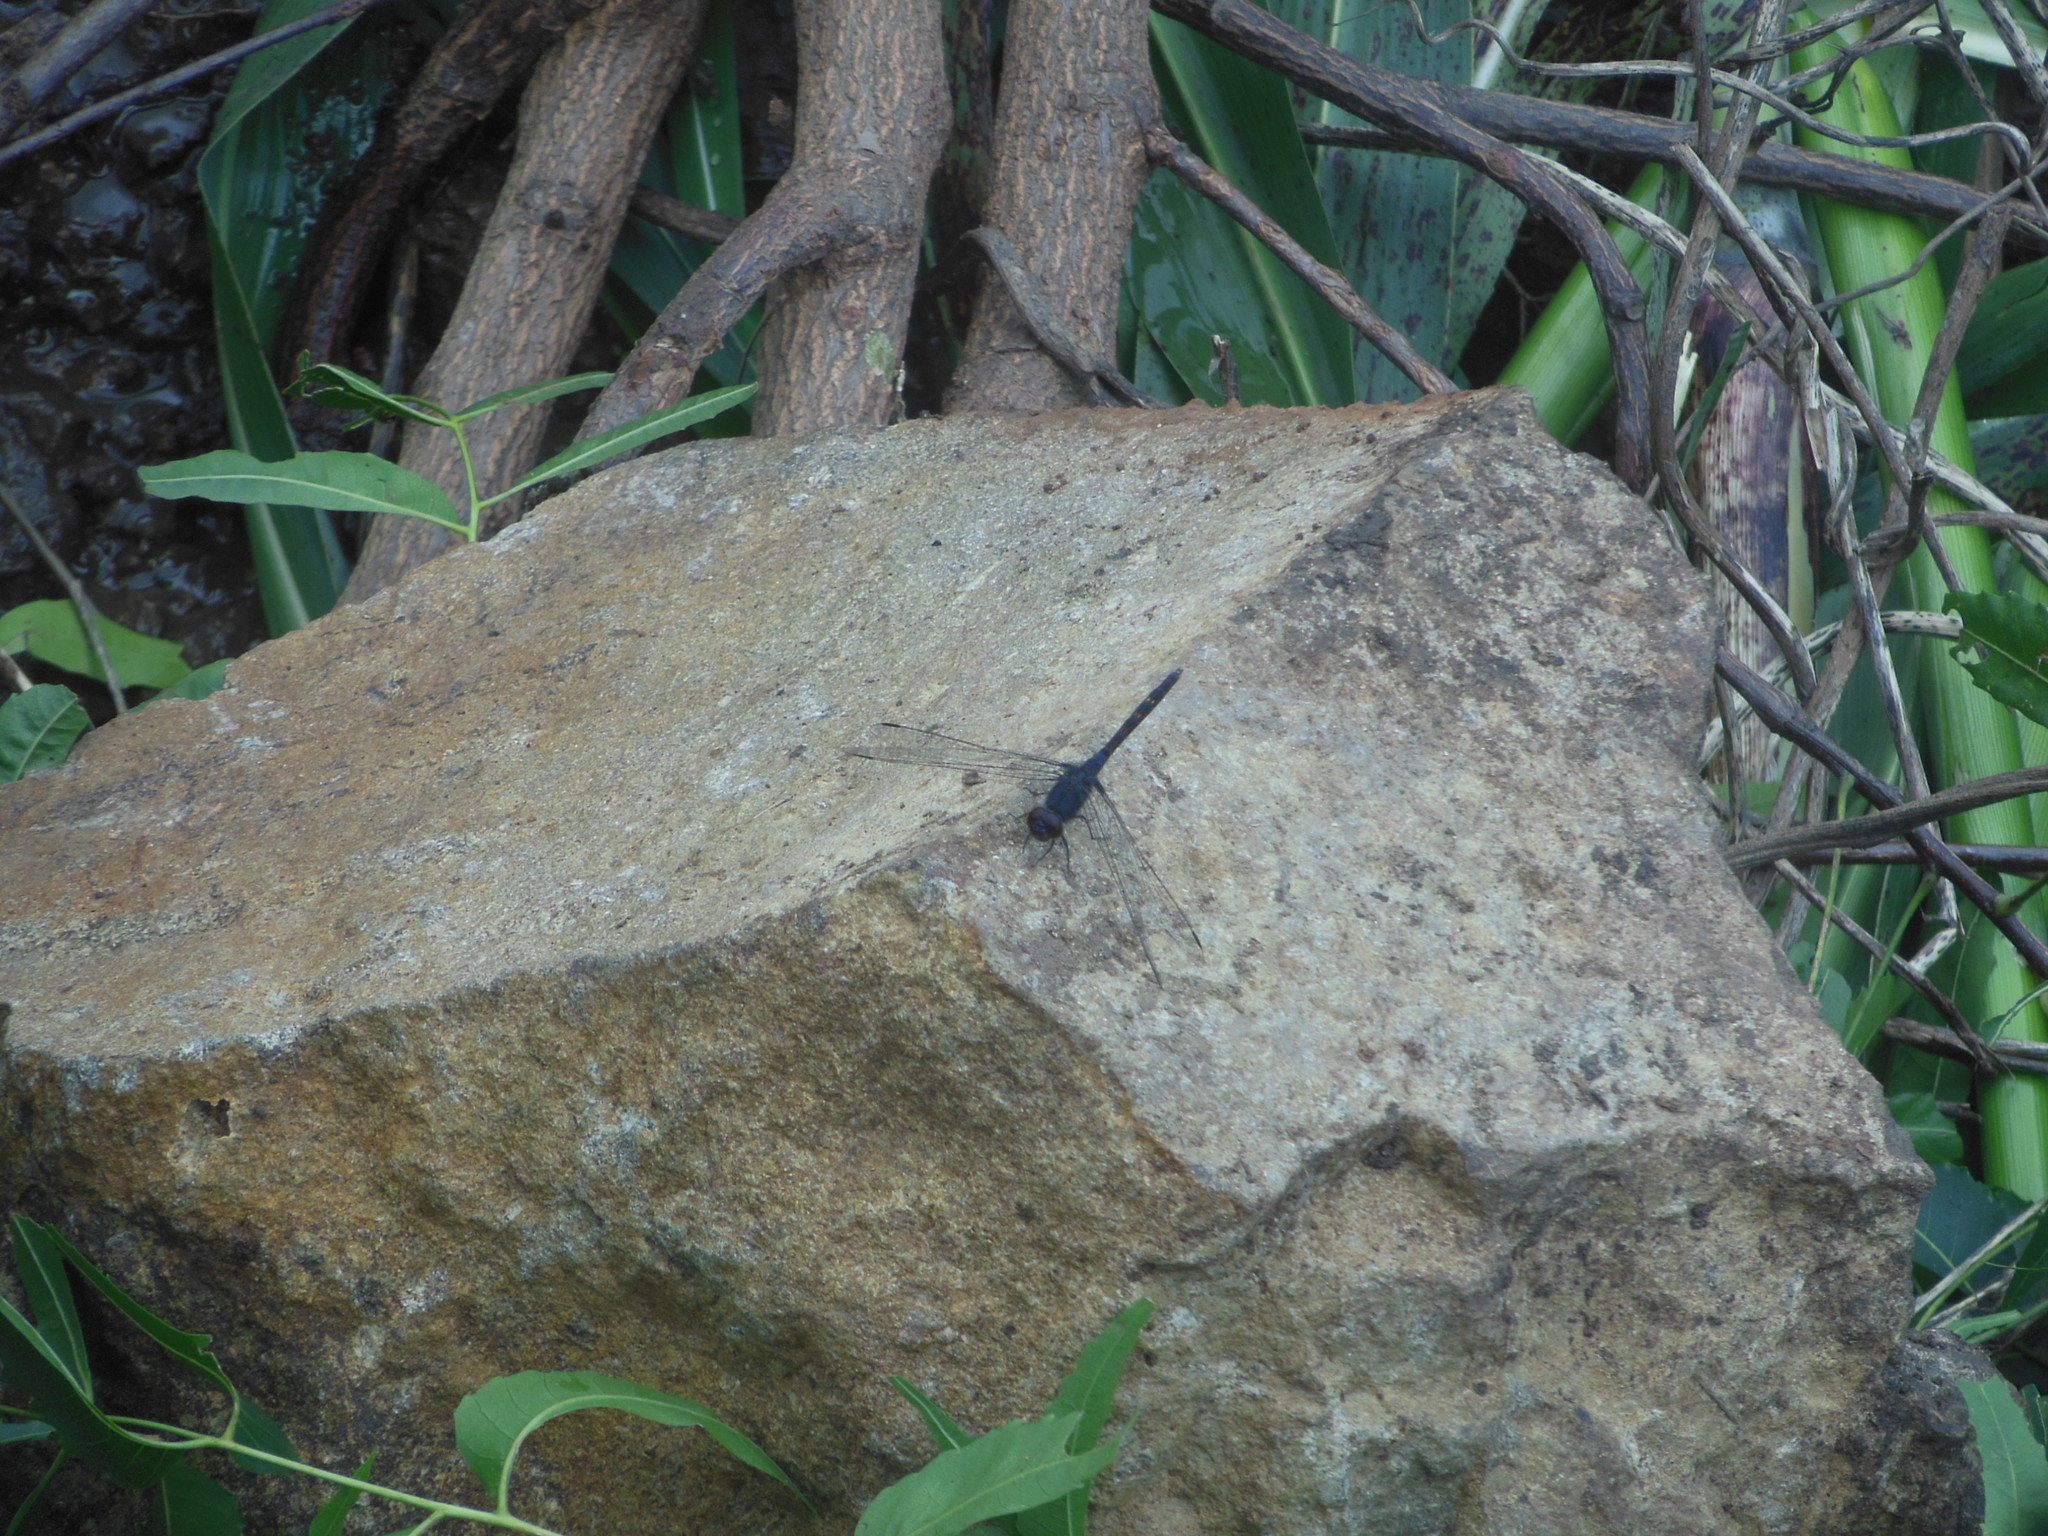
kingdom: Animalia
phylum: Arthropoda
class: Insecta
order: Odonata
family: Libellulidae
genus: Trithemis
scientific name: Trithemis festiva
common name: Indigo dropwing
